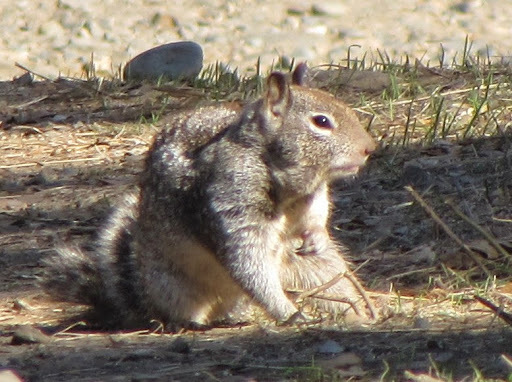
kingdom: Animalia
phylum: Chordata
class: Mammalia
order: Rodentia
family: Sciuridae
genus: Otospermophilus
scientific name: Otospermophilus beecheyi
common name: California ground squirrel
